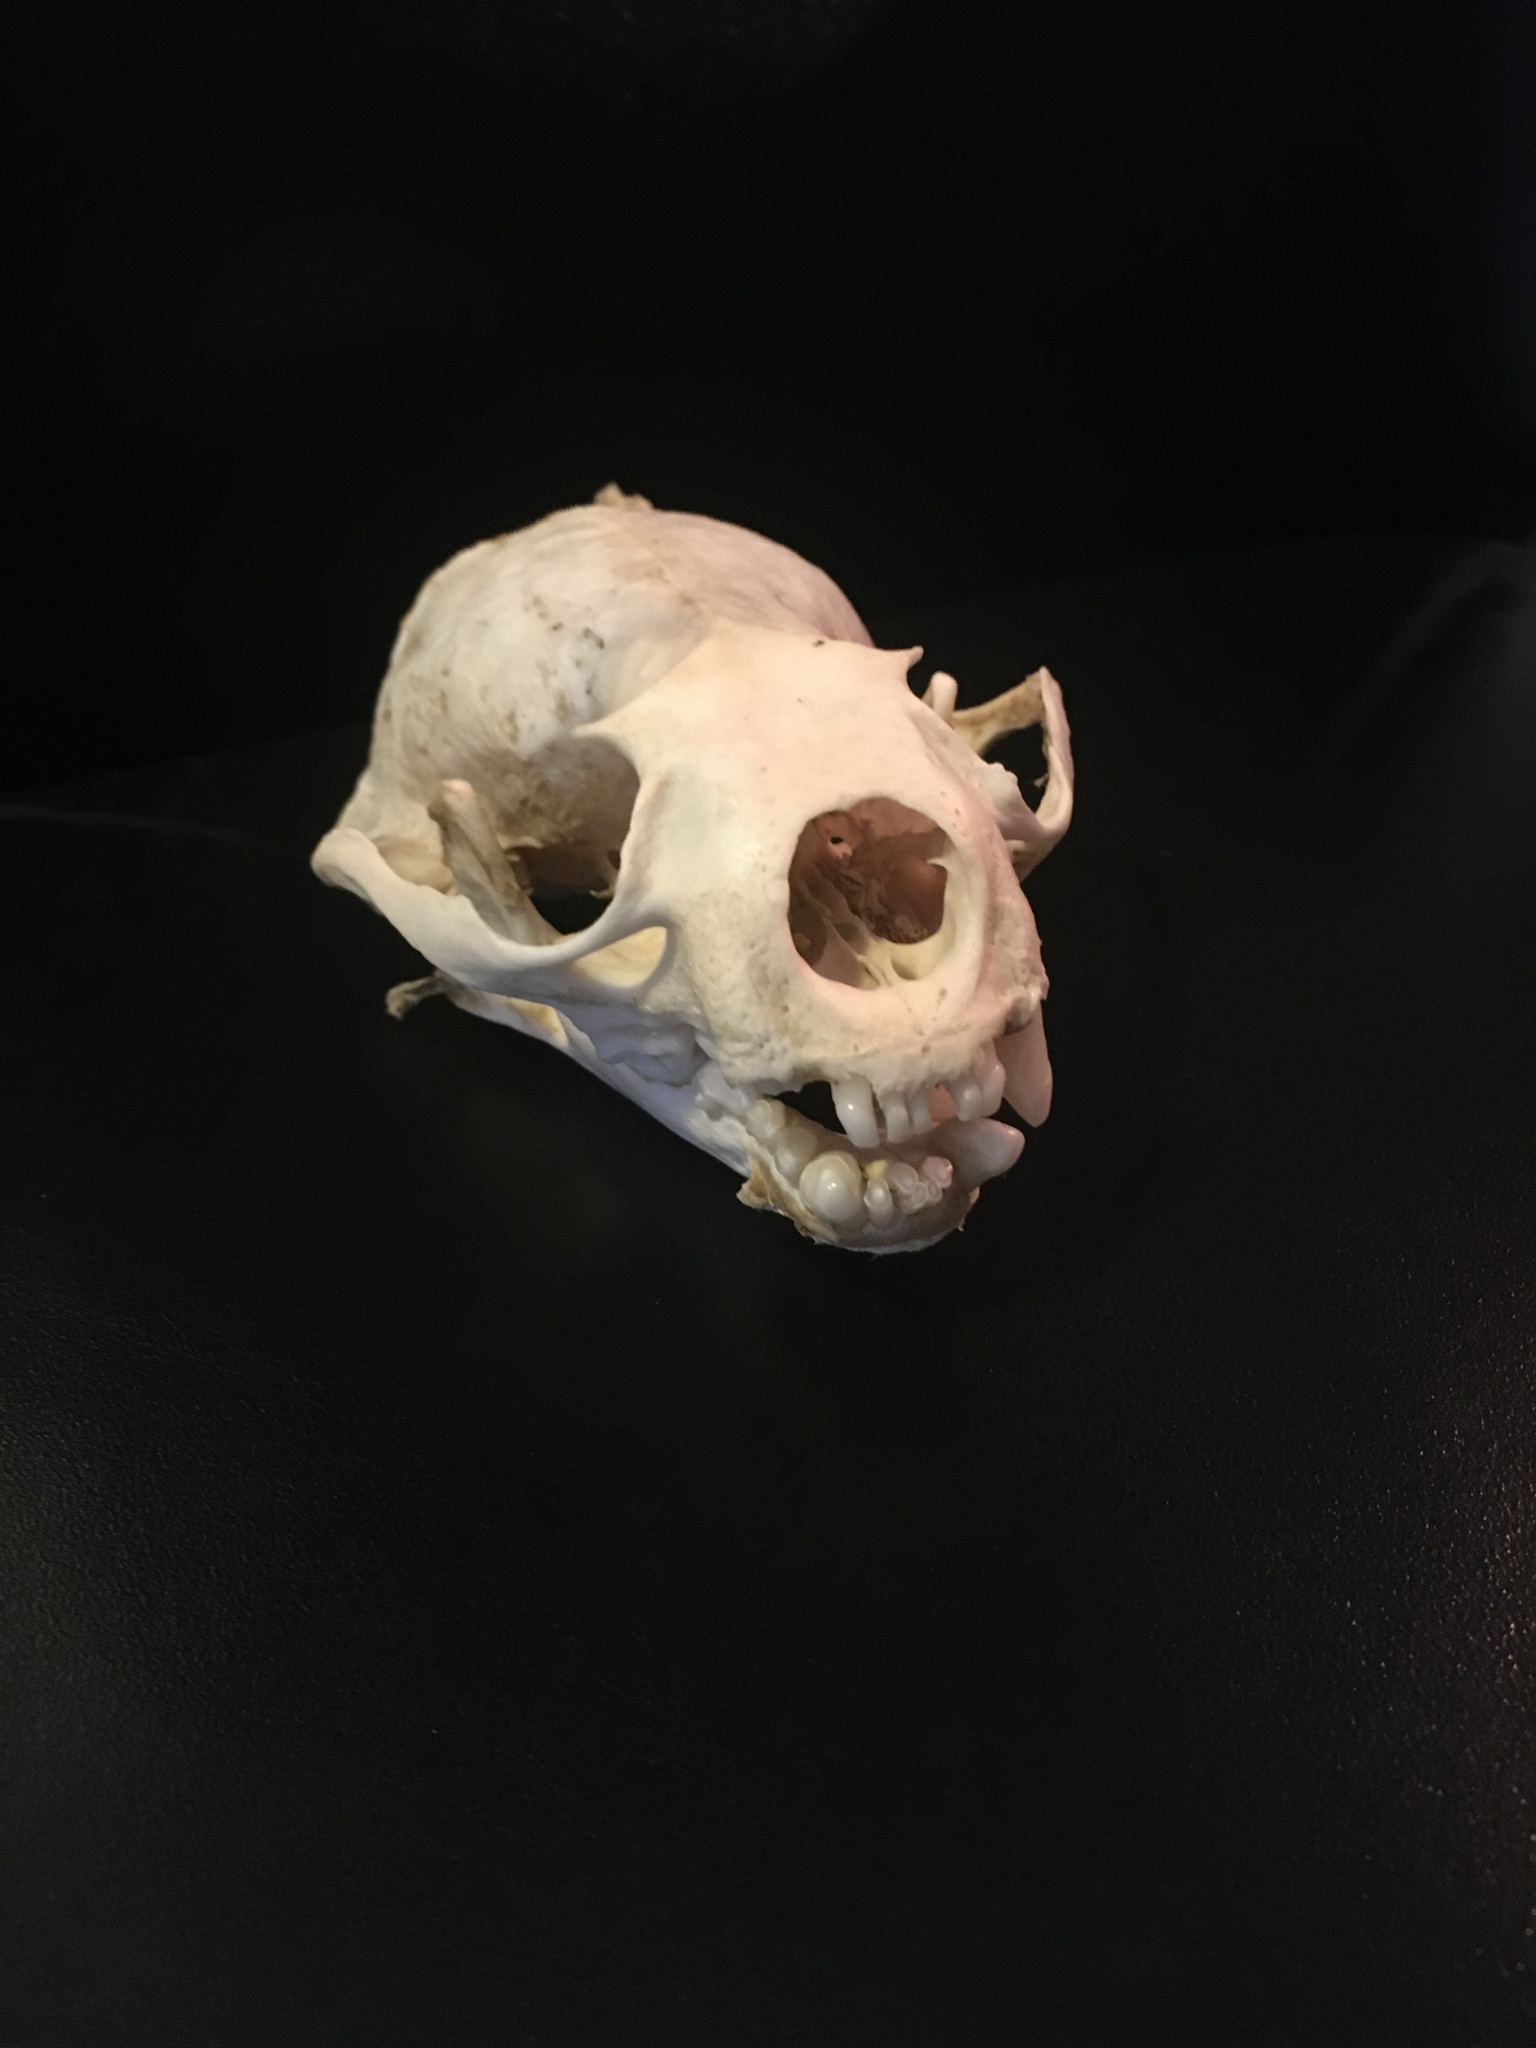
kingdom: Animalia
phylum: Chordata
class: Mammalia
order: Carnivora
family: Mustelidae
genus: Lontra
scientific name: Lontra canadensis
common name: North american river otter
